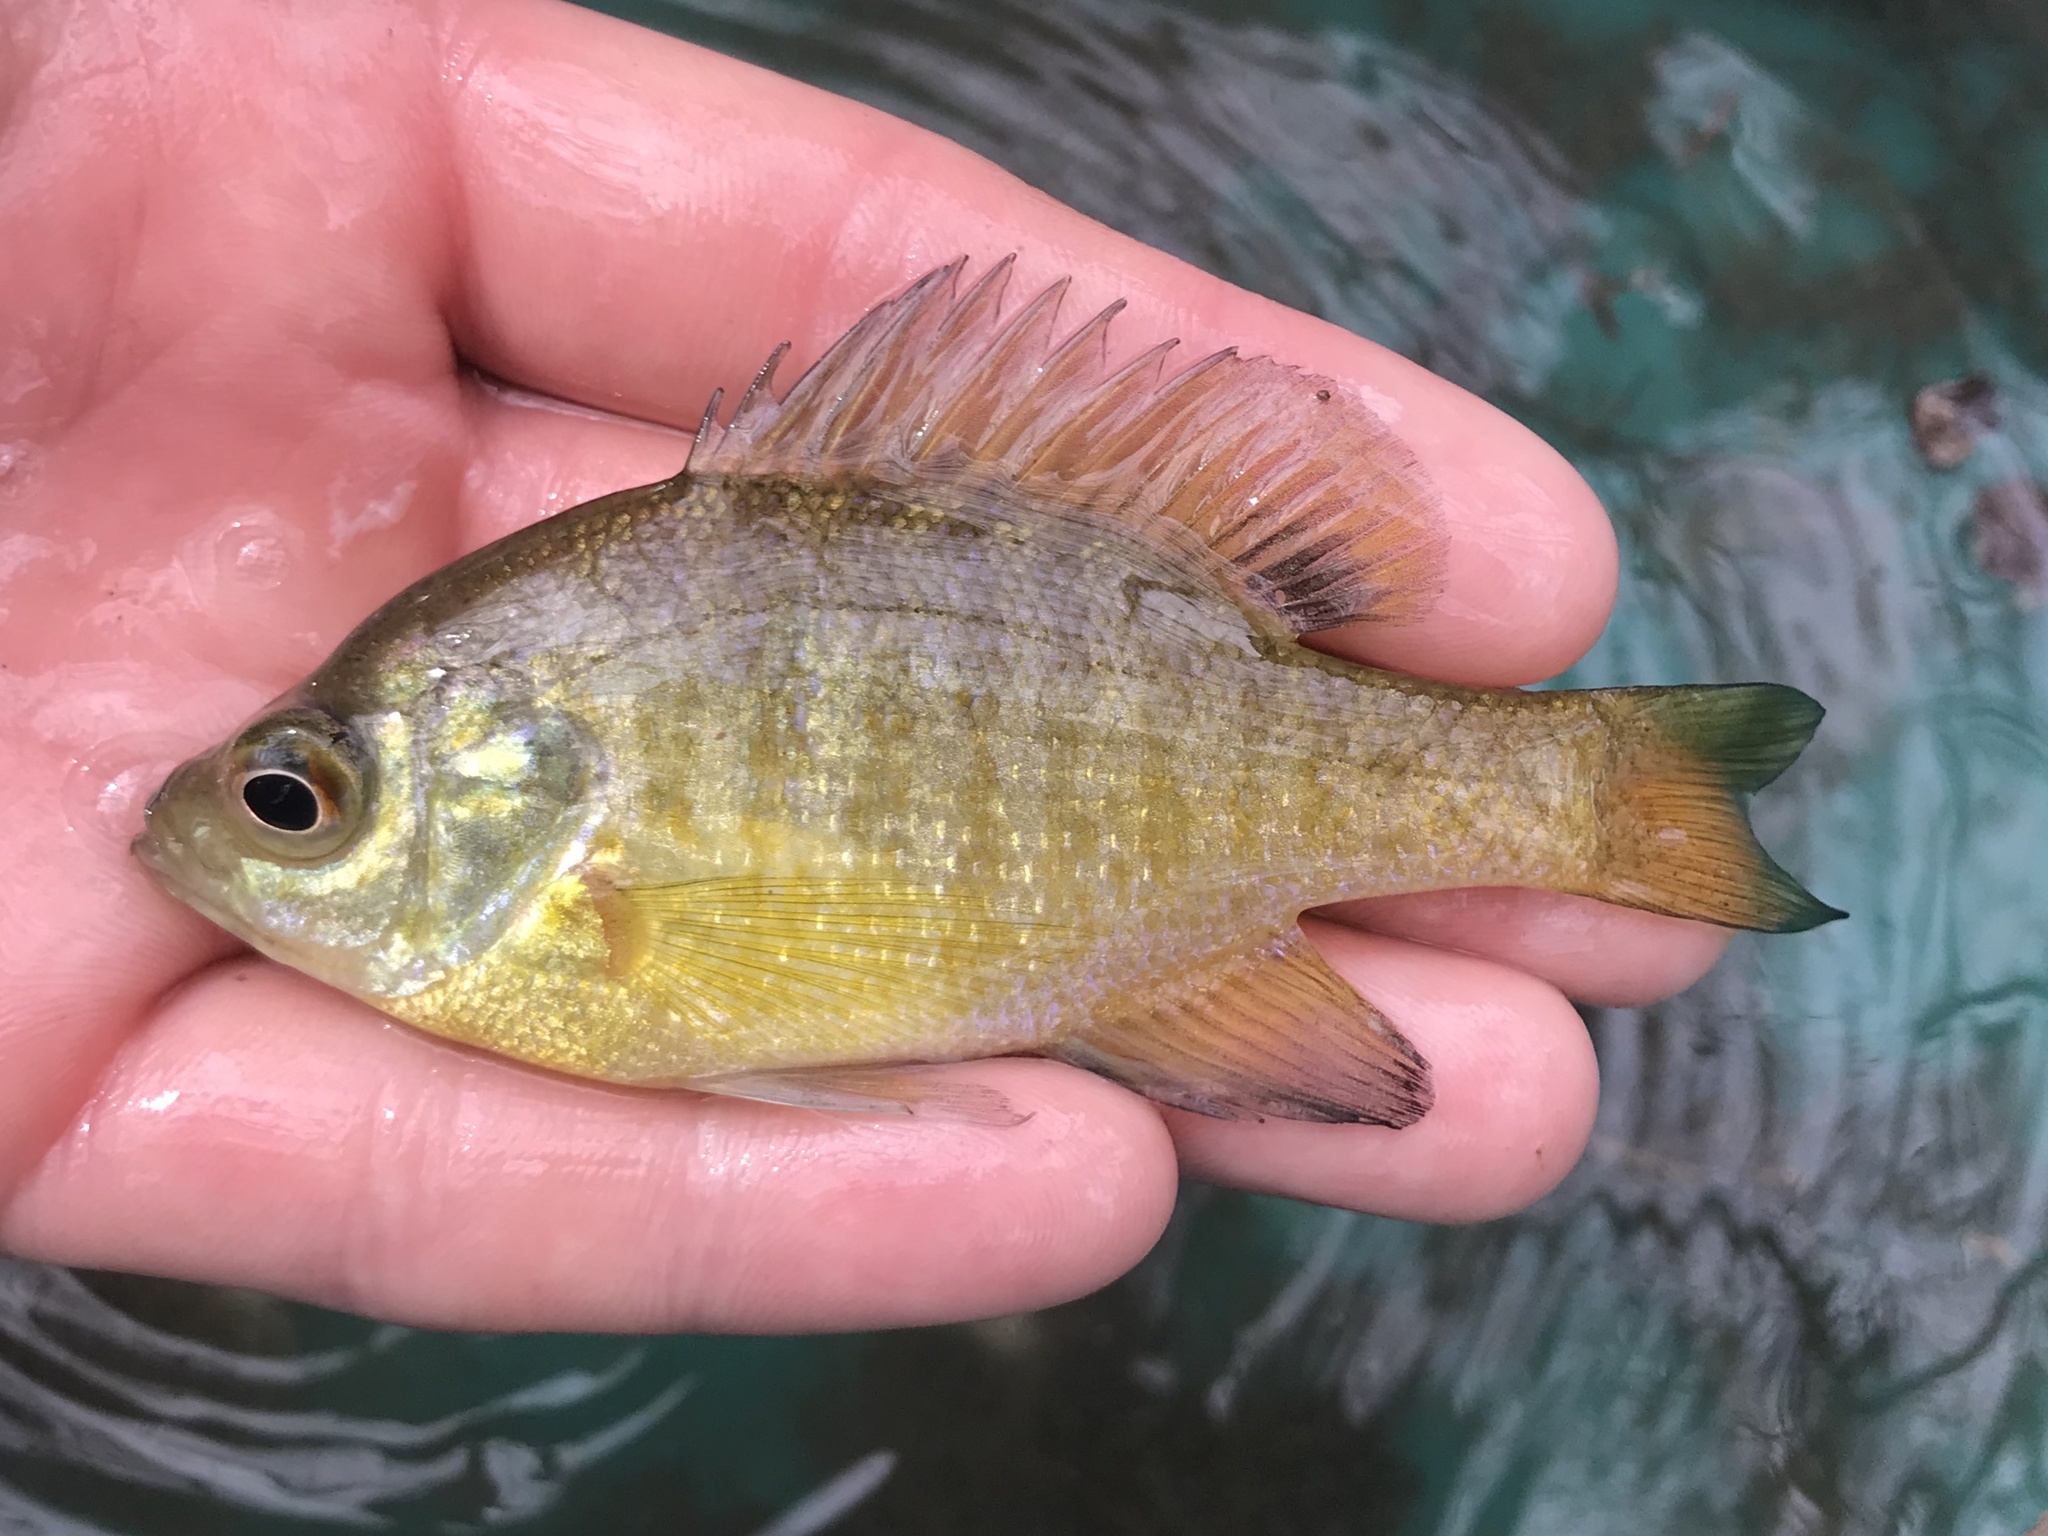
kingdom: Animalia
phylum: Chordata
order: Perciformes
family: Centrarchidae
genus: Lepomis
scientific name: Lepomis macrochirus
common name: Bluegill
